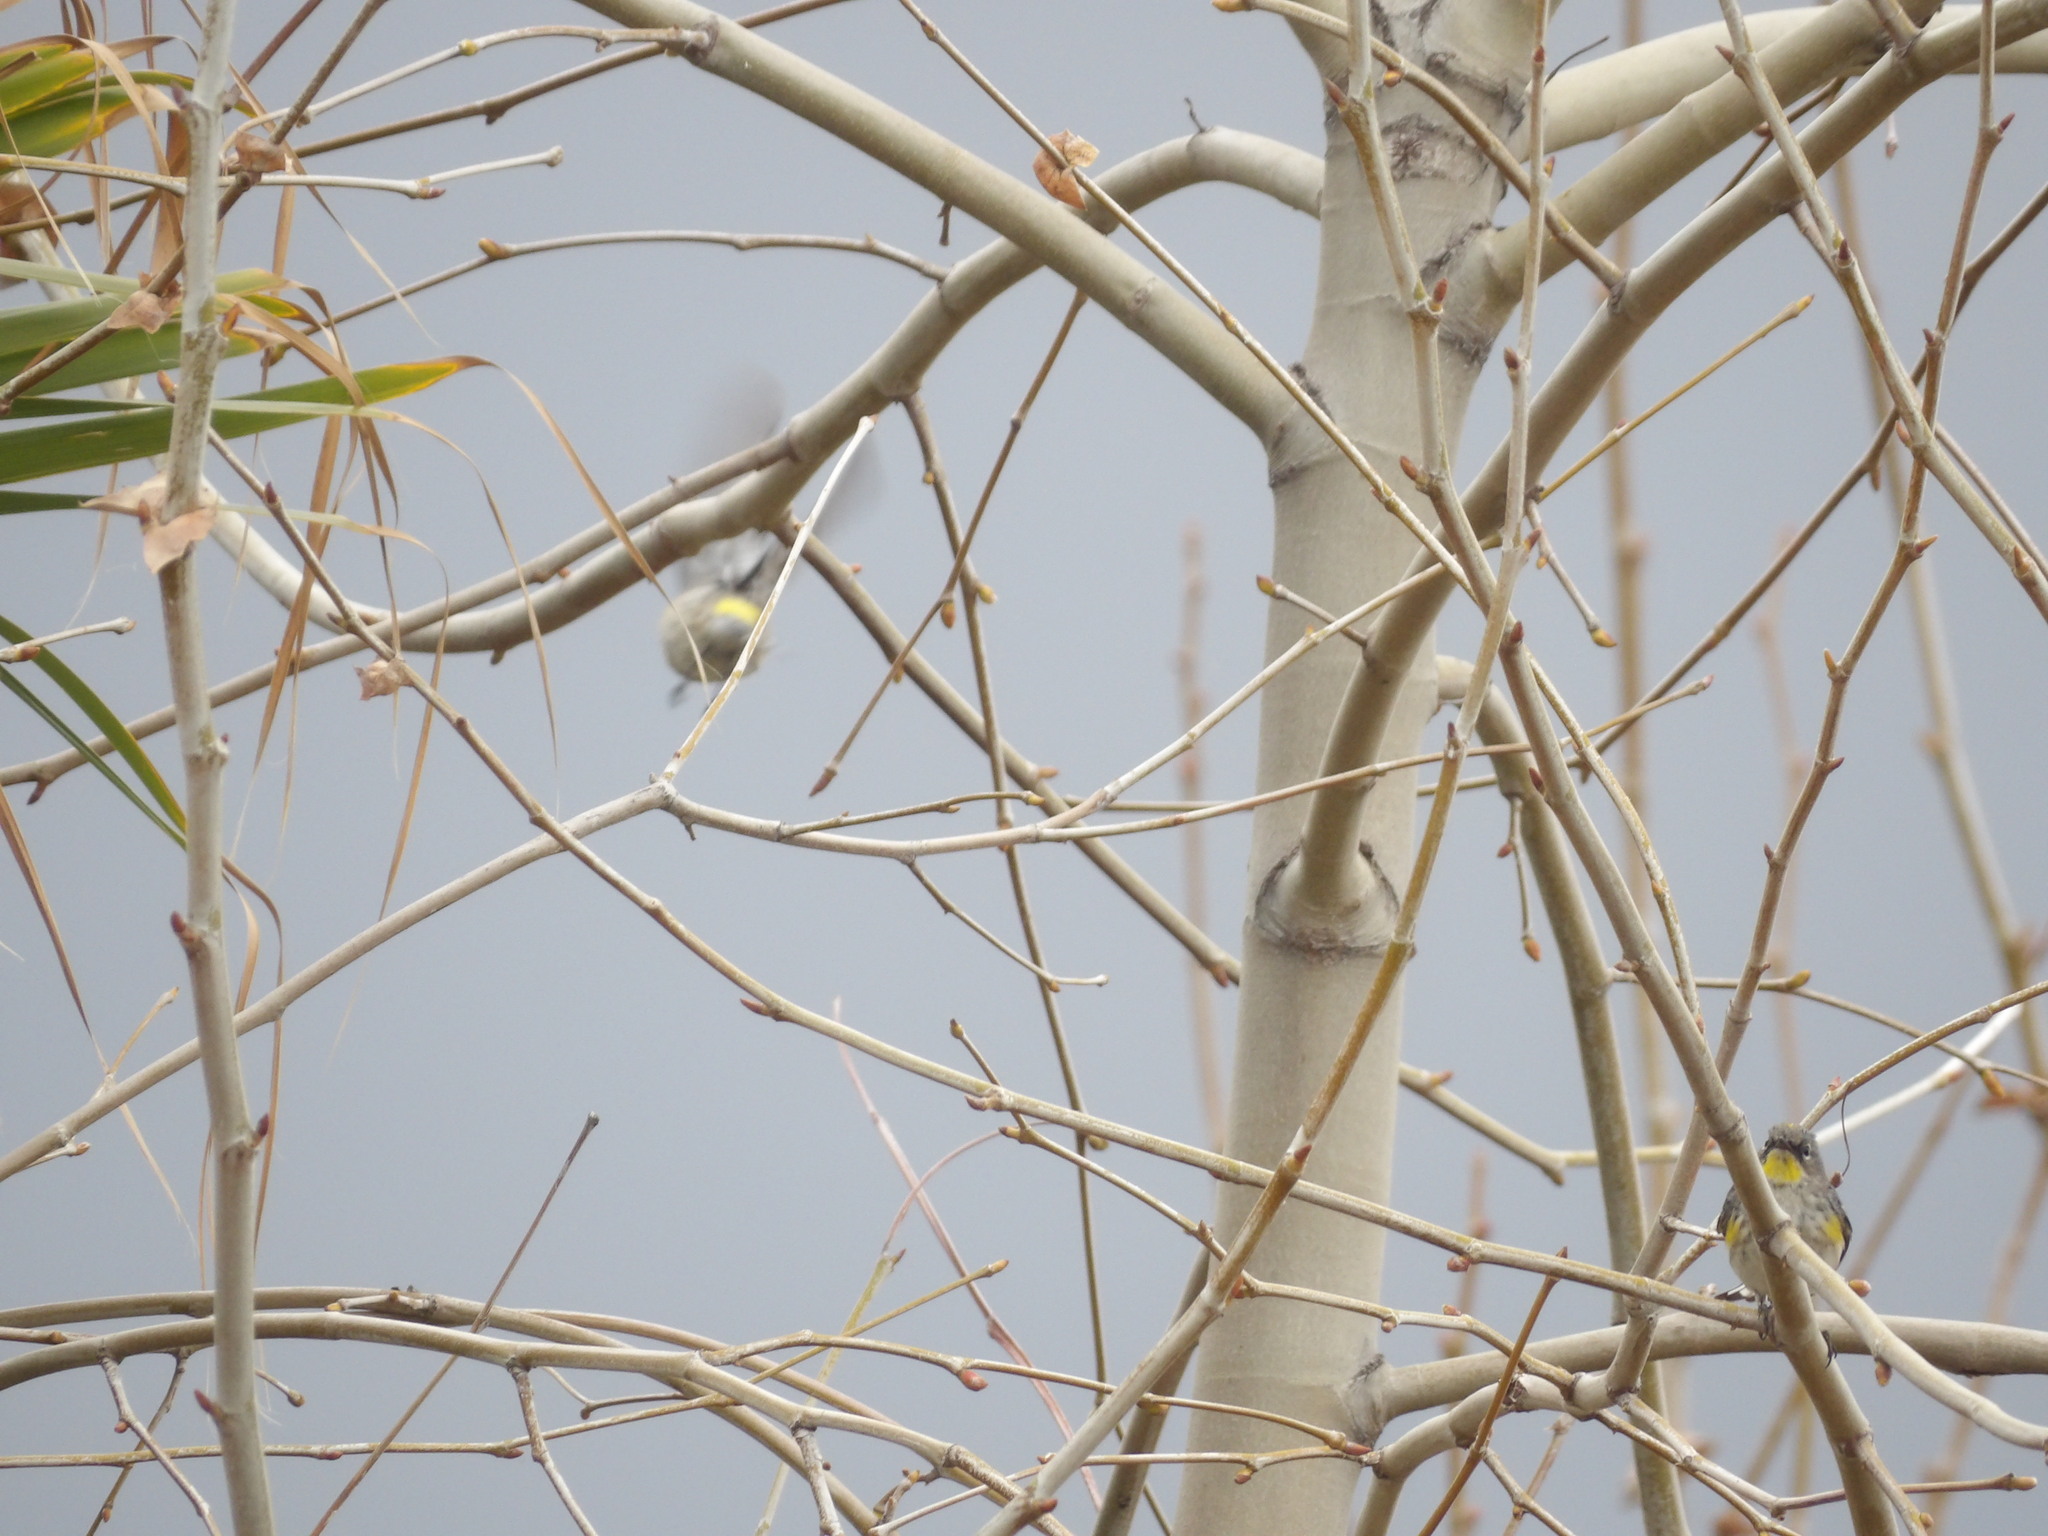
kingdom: Animalia
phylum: Chordata
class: Aves
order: Passeriformes
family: Parulidae
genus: Setophaga
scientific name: Setophaga coronata
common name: Myrtle warbler
